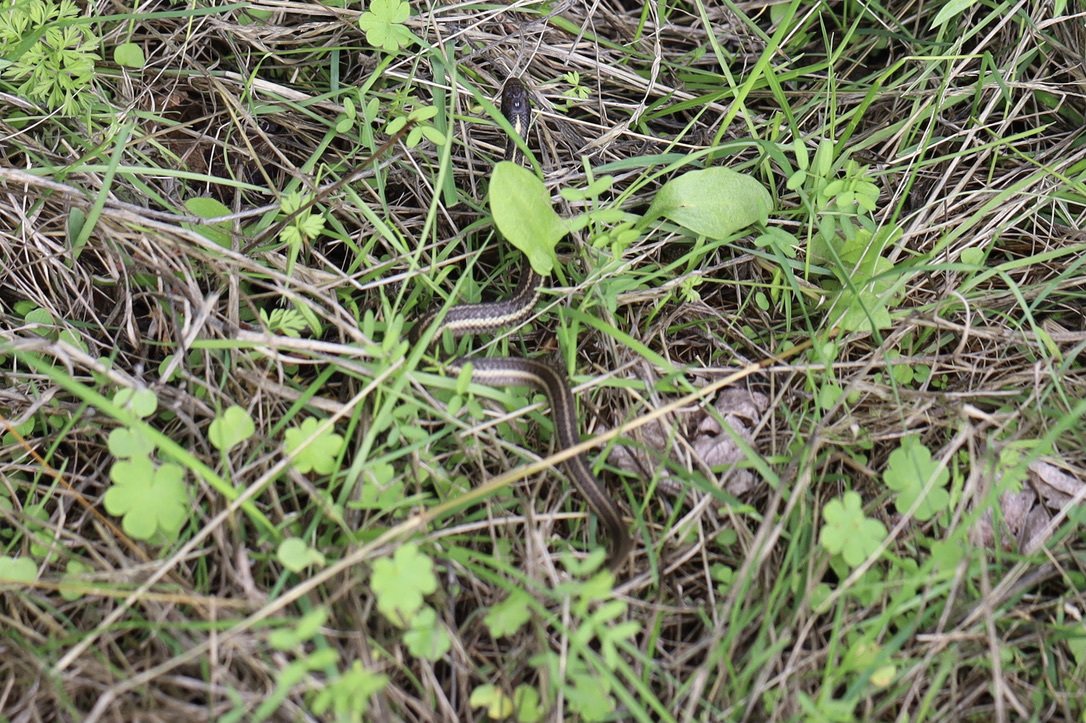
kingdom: Animalia
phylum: Chordata
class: Squamata
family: Colubridae
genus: Thamnophis
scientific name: Thamnophis ordinoides
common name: Northwestern garter snake
